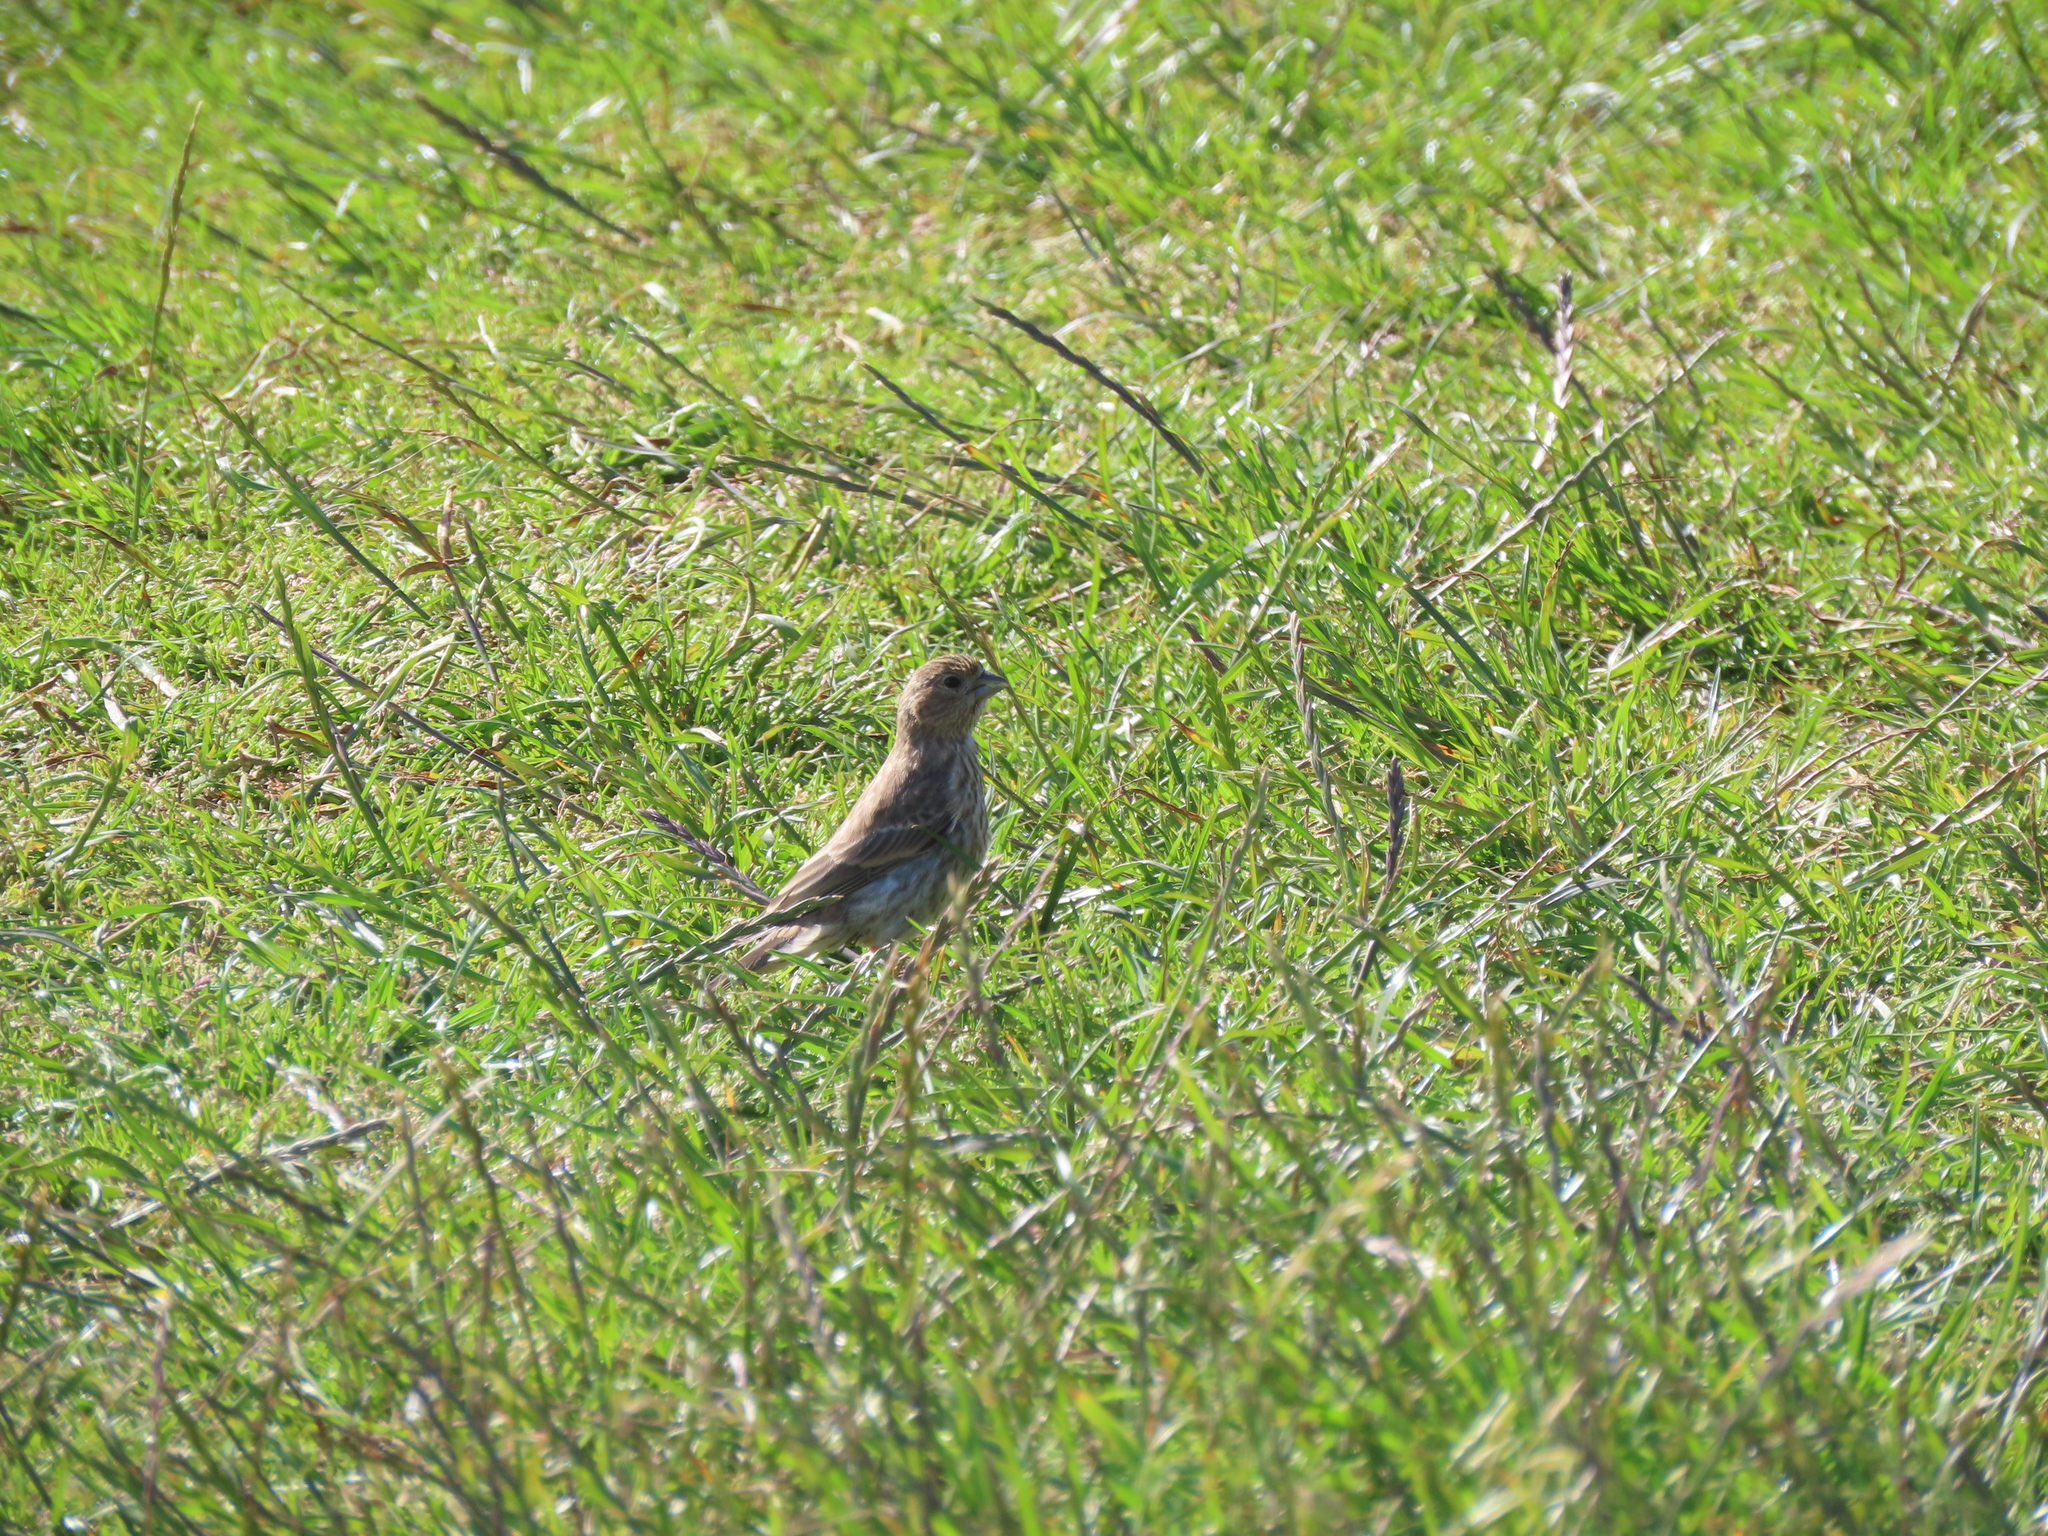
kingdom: Animalia
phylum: Chordata
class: Aves
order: Passeriformes
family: Fringillidae
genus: Haemorhous
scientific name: Haemorhous mexicanus
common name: House finch
